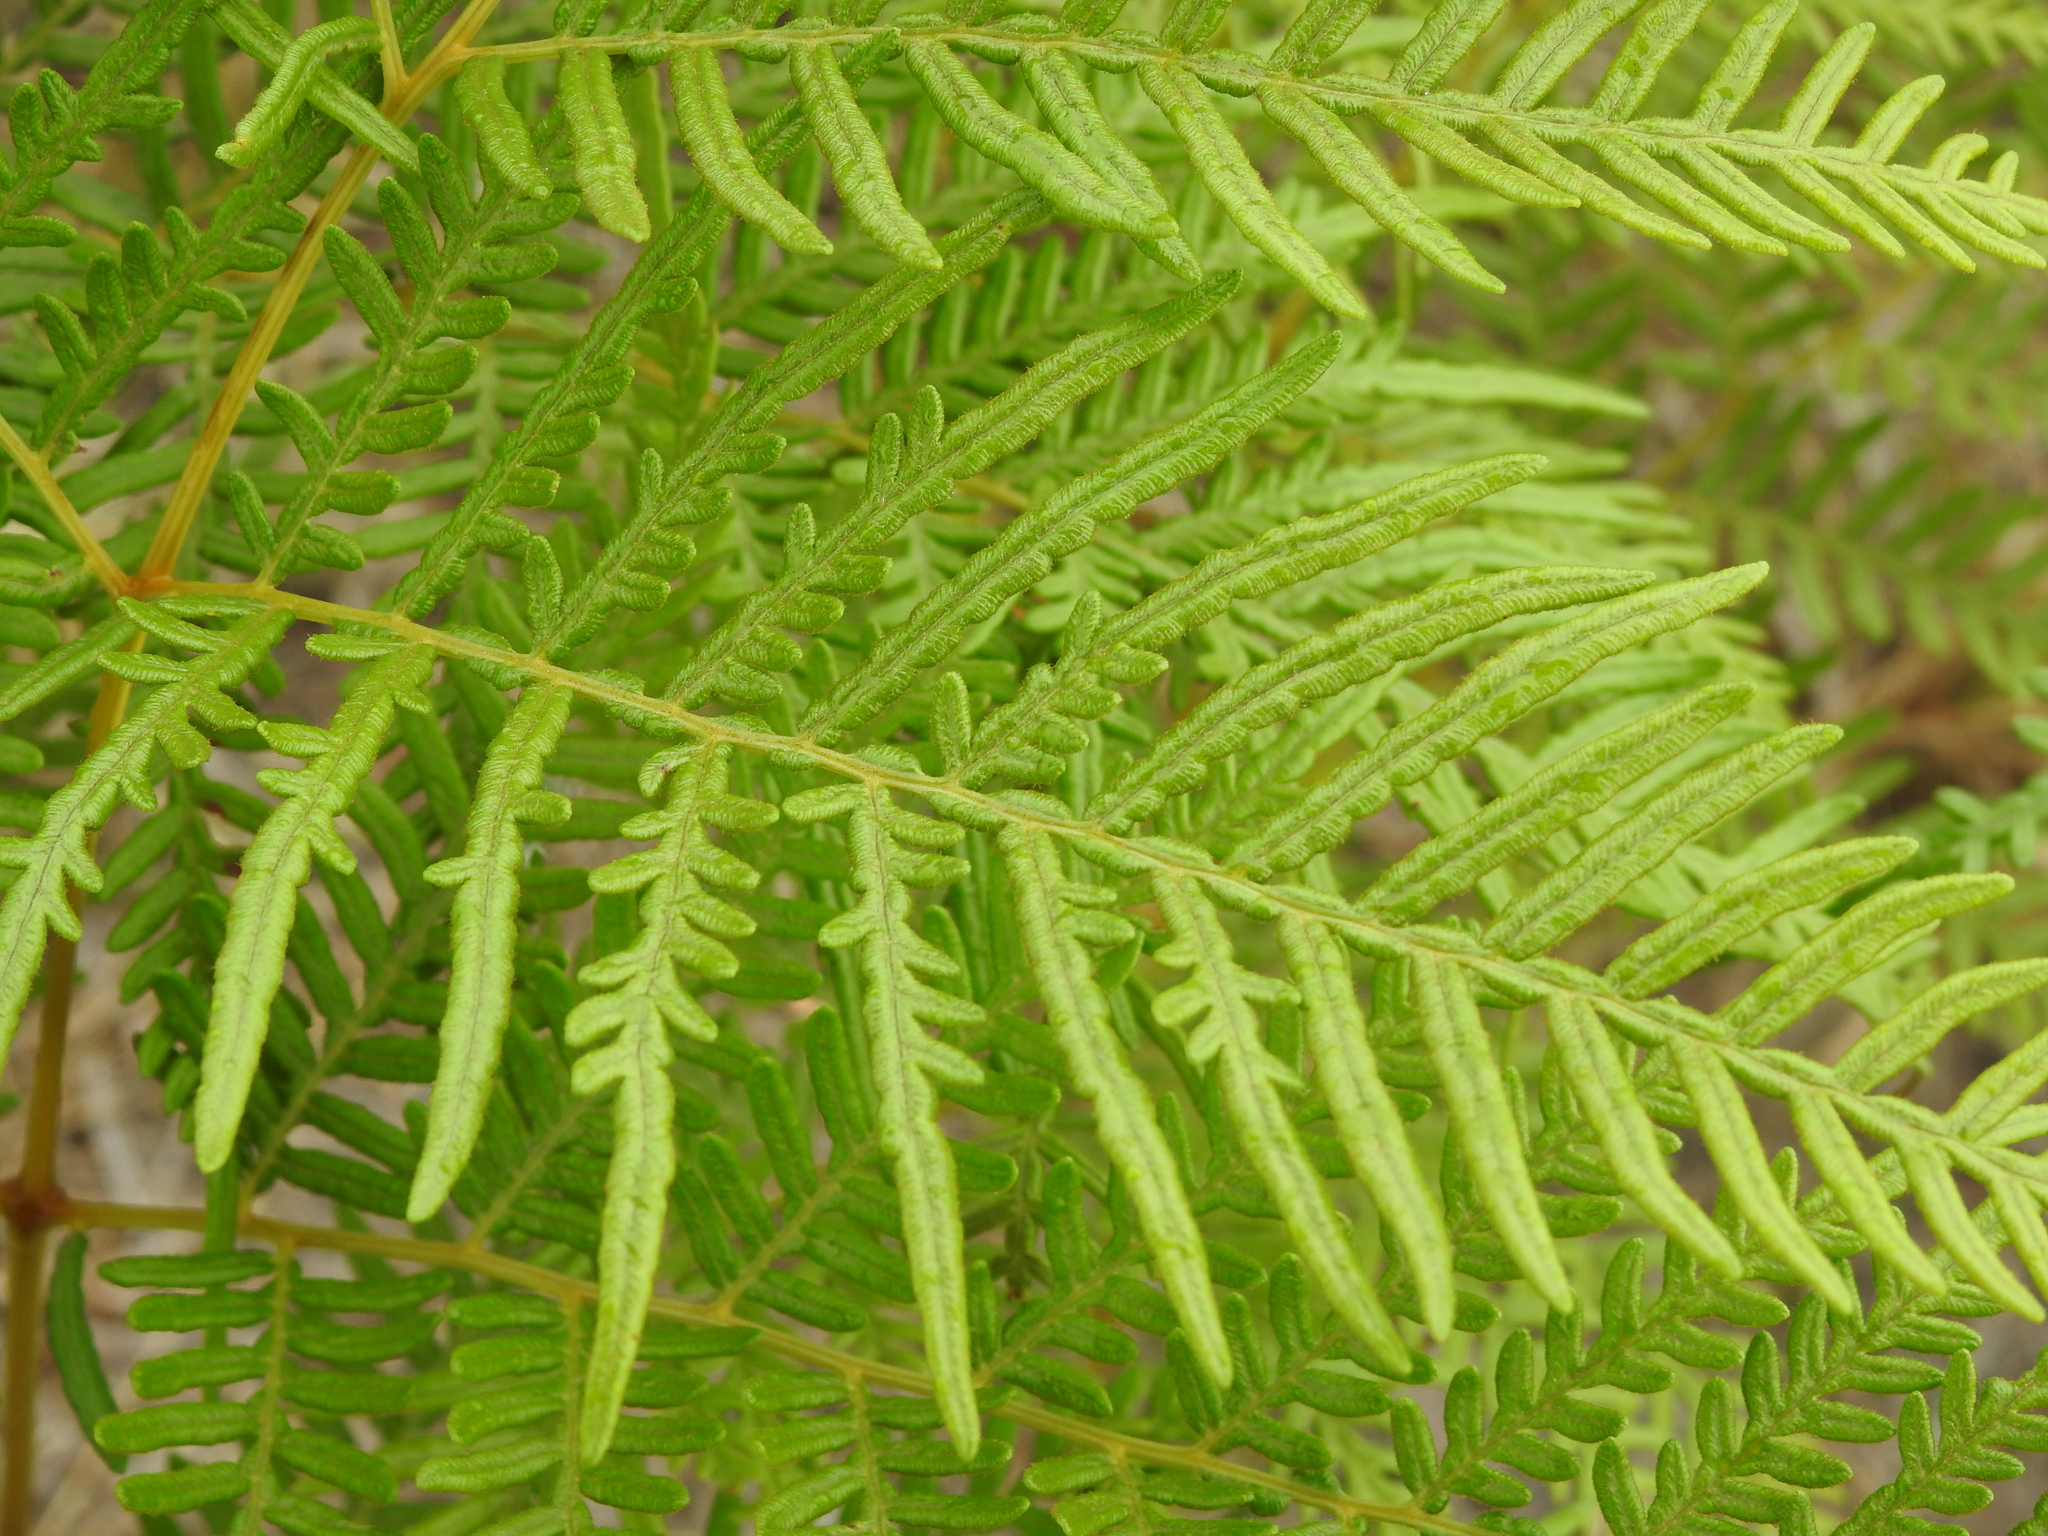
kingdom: Plantae
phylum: Tracheophyta
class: Polypodiopsida
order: Polypodiales
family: Dennstaedtiaceae
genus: Pteridium
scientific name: Pteridium esculentum
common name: Bracken fern
